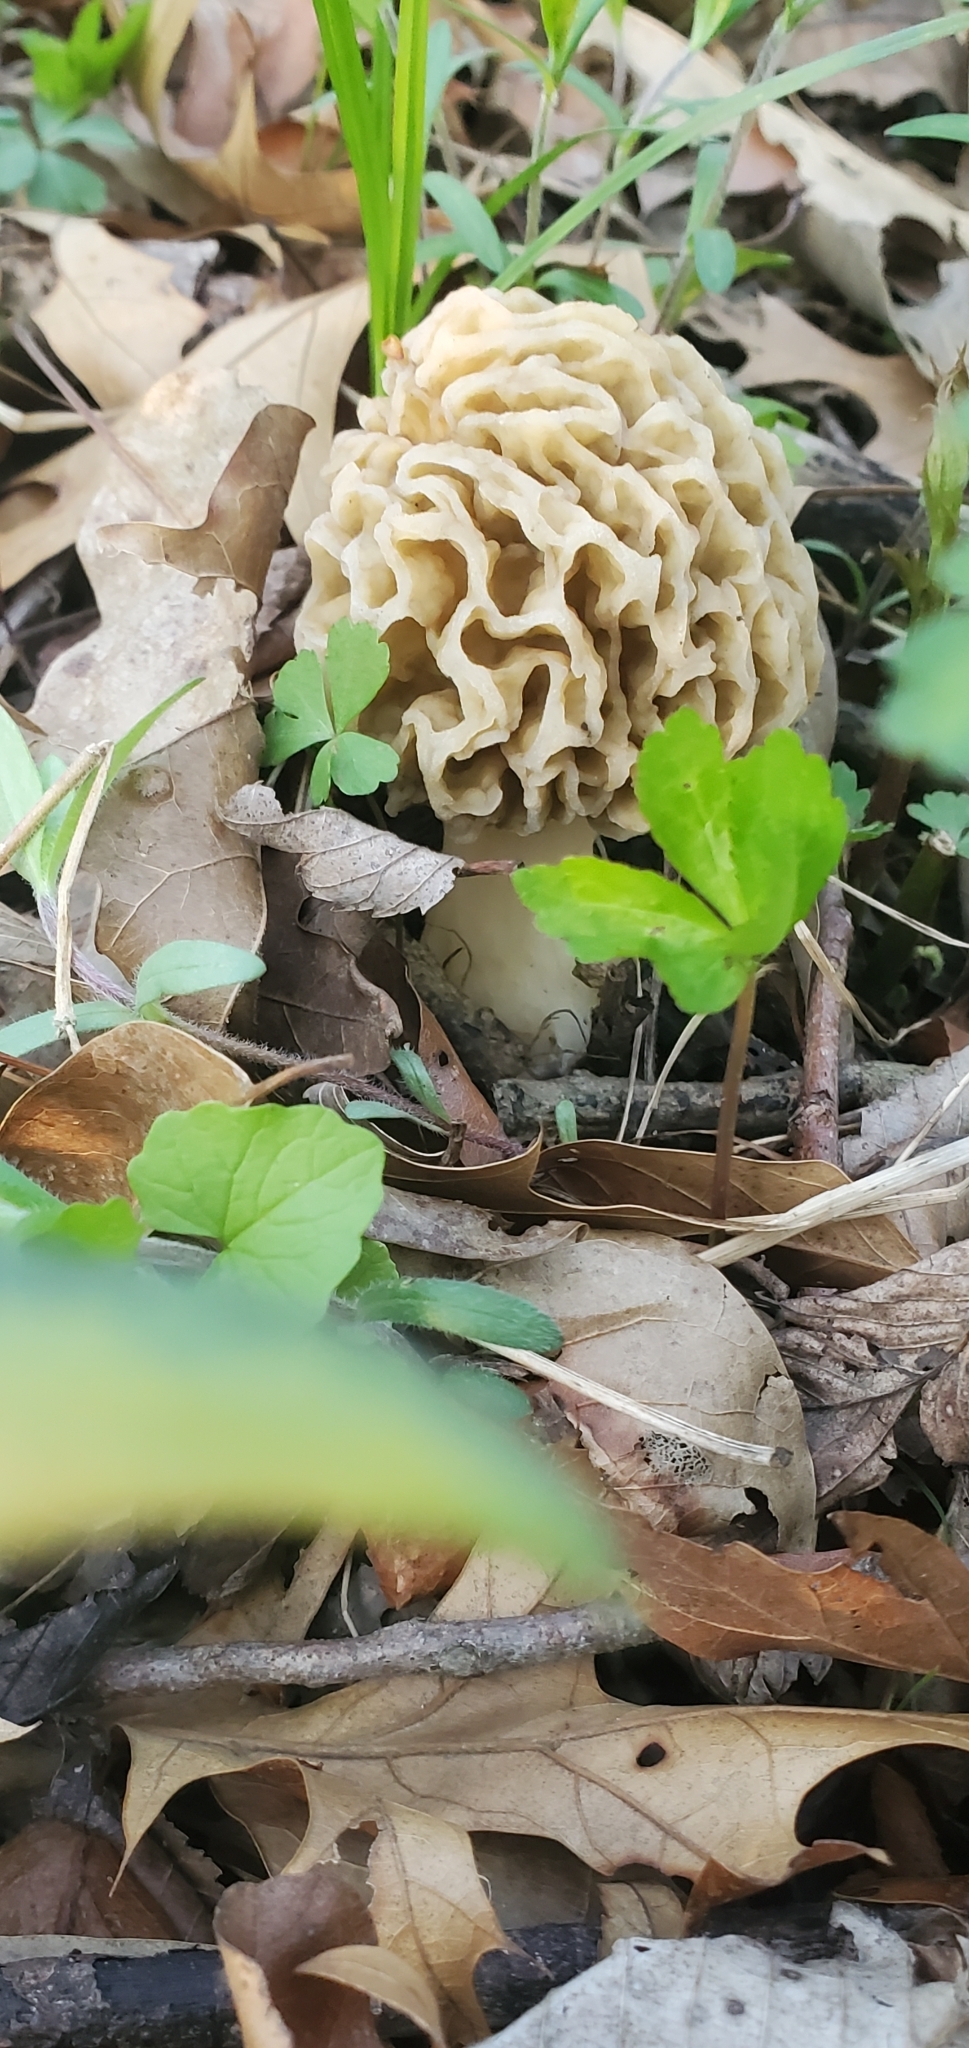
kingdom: Fungi
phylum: Ascomycota
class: Pezizomycetes
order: Pezizales
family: Morchellaceae
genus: Morchella
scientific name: Morchella americana
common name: White morel
